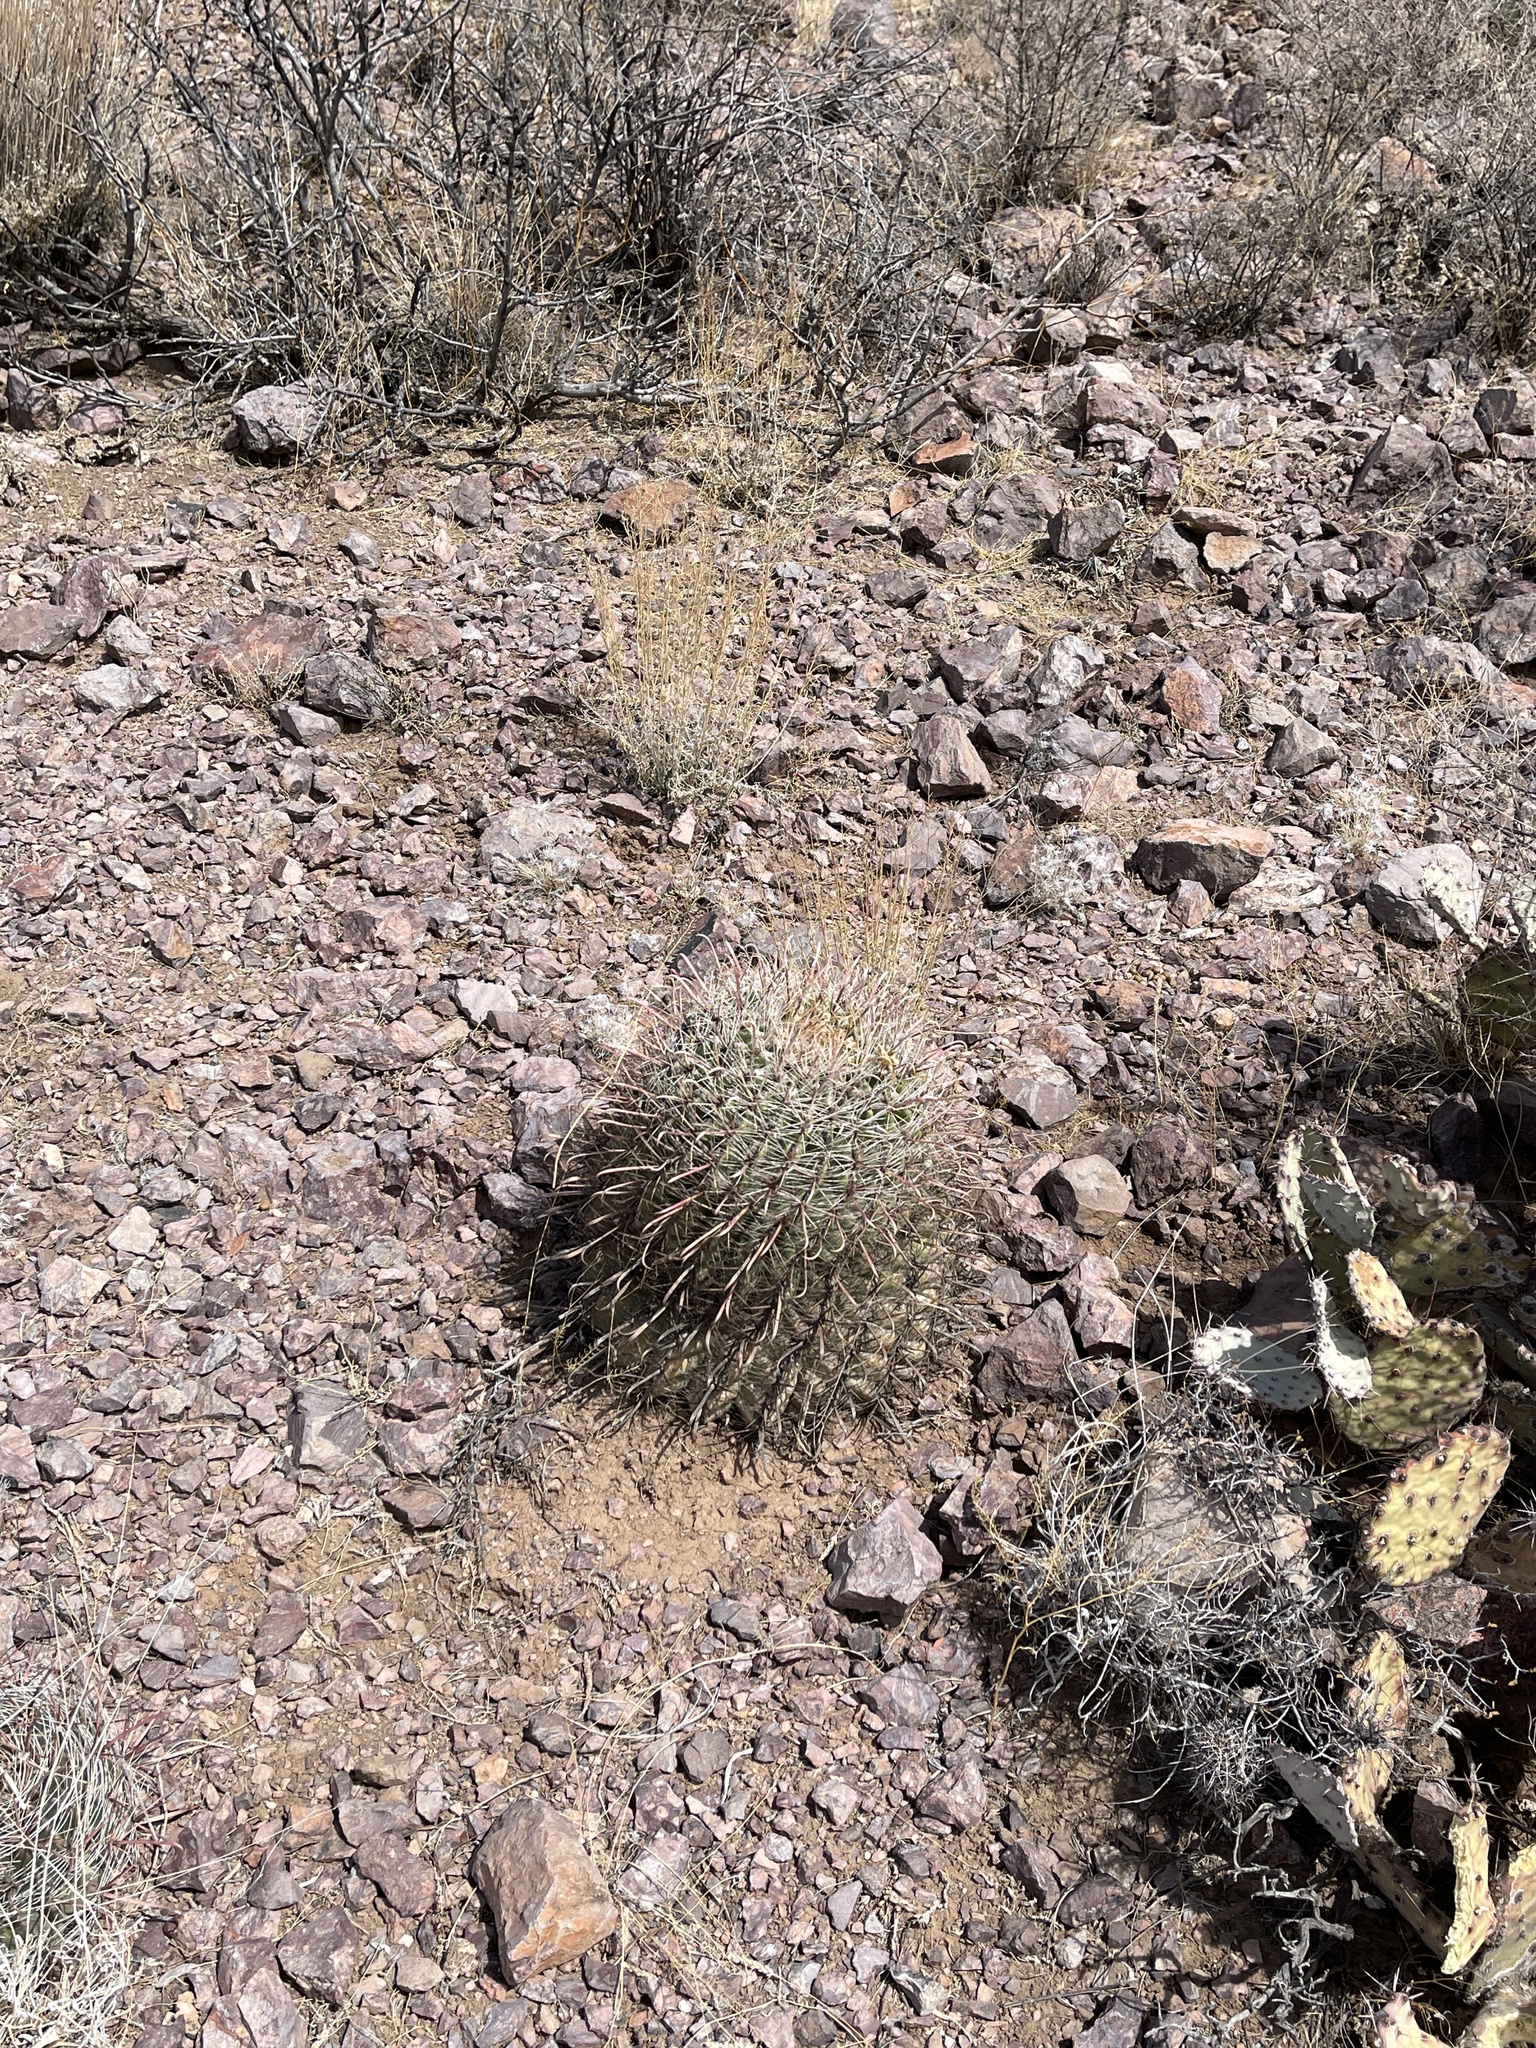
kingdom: Plantae
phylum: Tracheophyta
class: Magnoliopsida
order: Caryophyllales
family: Cactaceae
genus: Ferocactus
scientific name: Ferocactus wislizeni
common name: Candy barrel cactus
